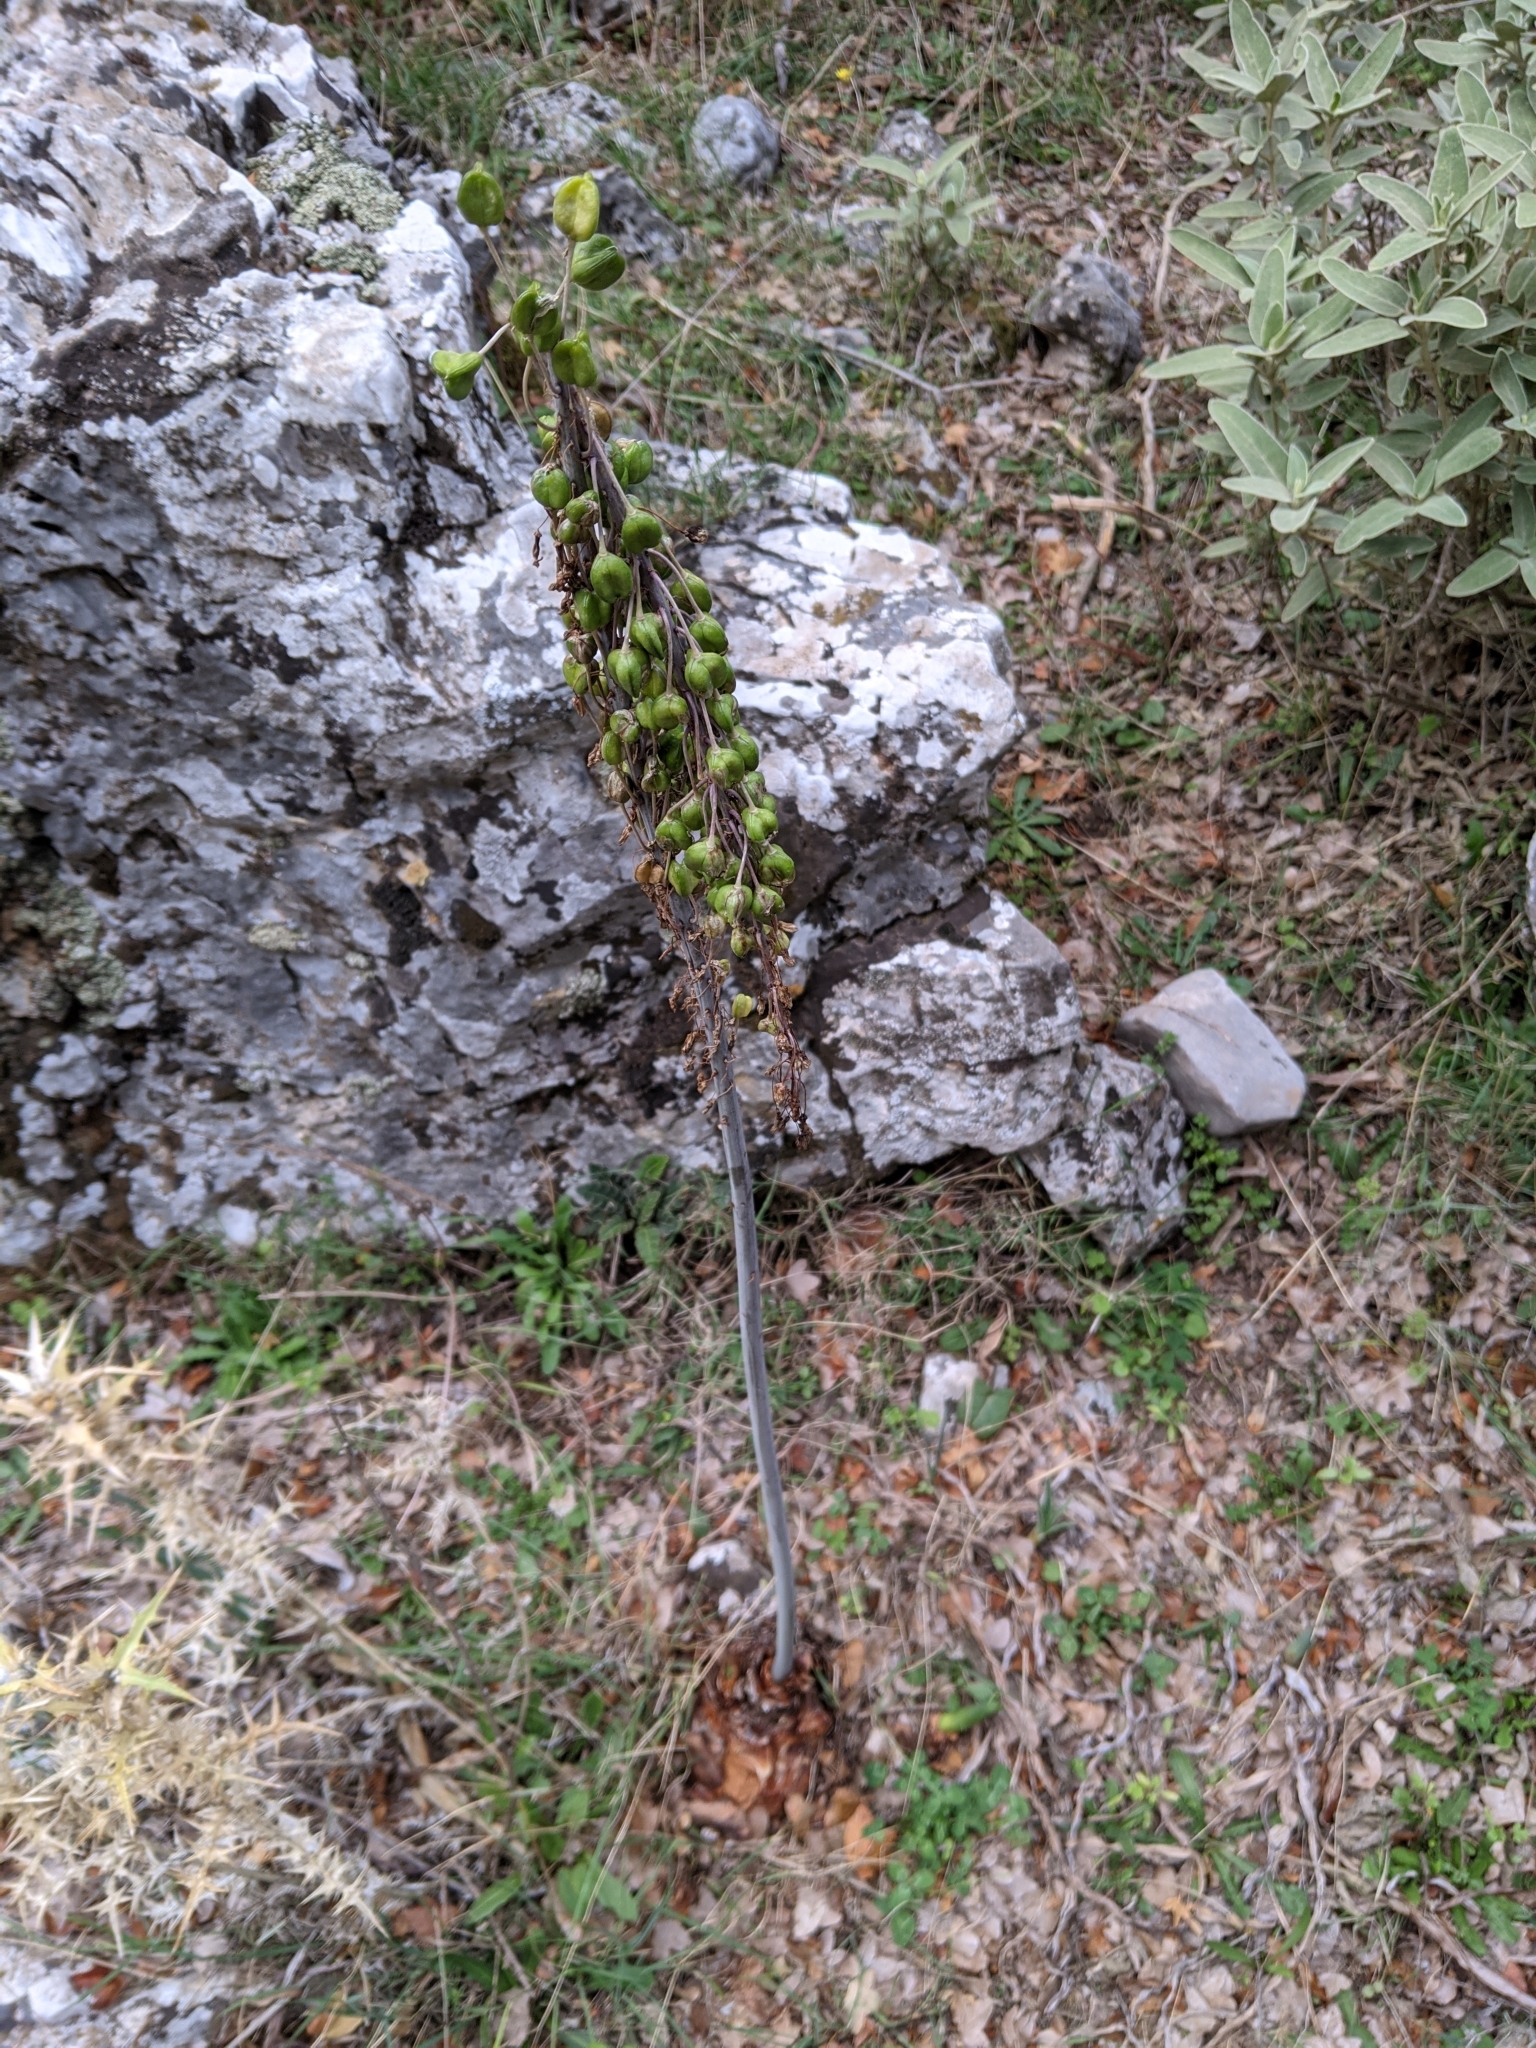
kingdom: Plantae
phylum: Tracheophyta
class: Liliopsida
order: Asparagales
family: Asparagaceae
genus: Drimia
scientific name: Drimia numidica
